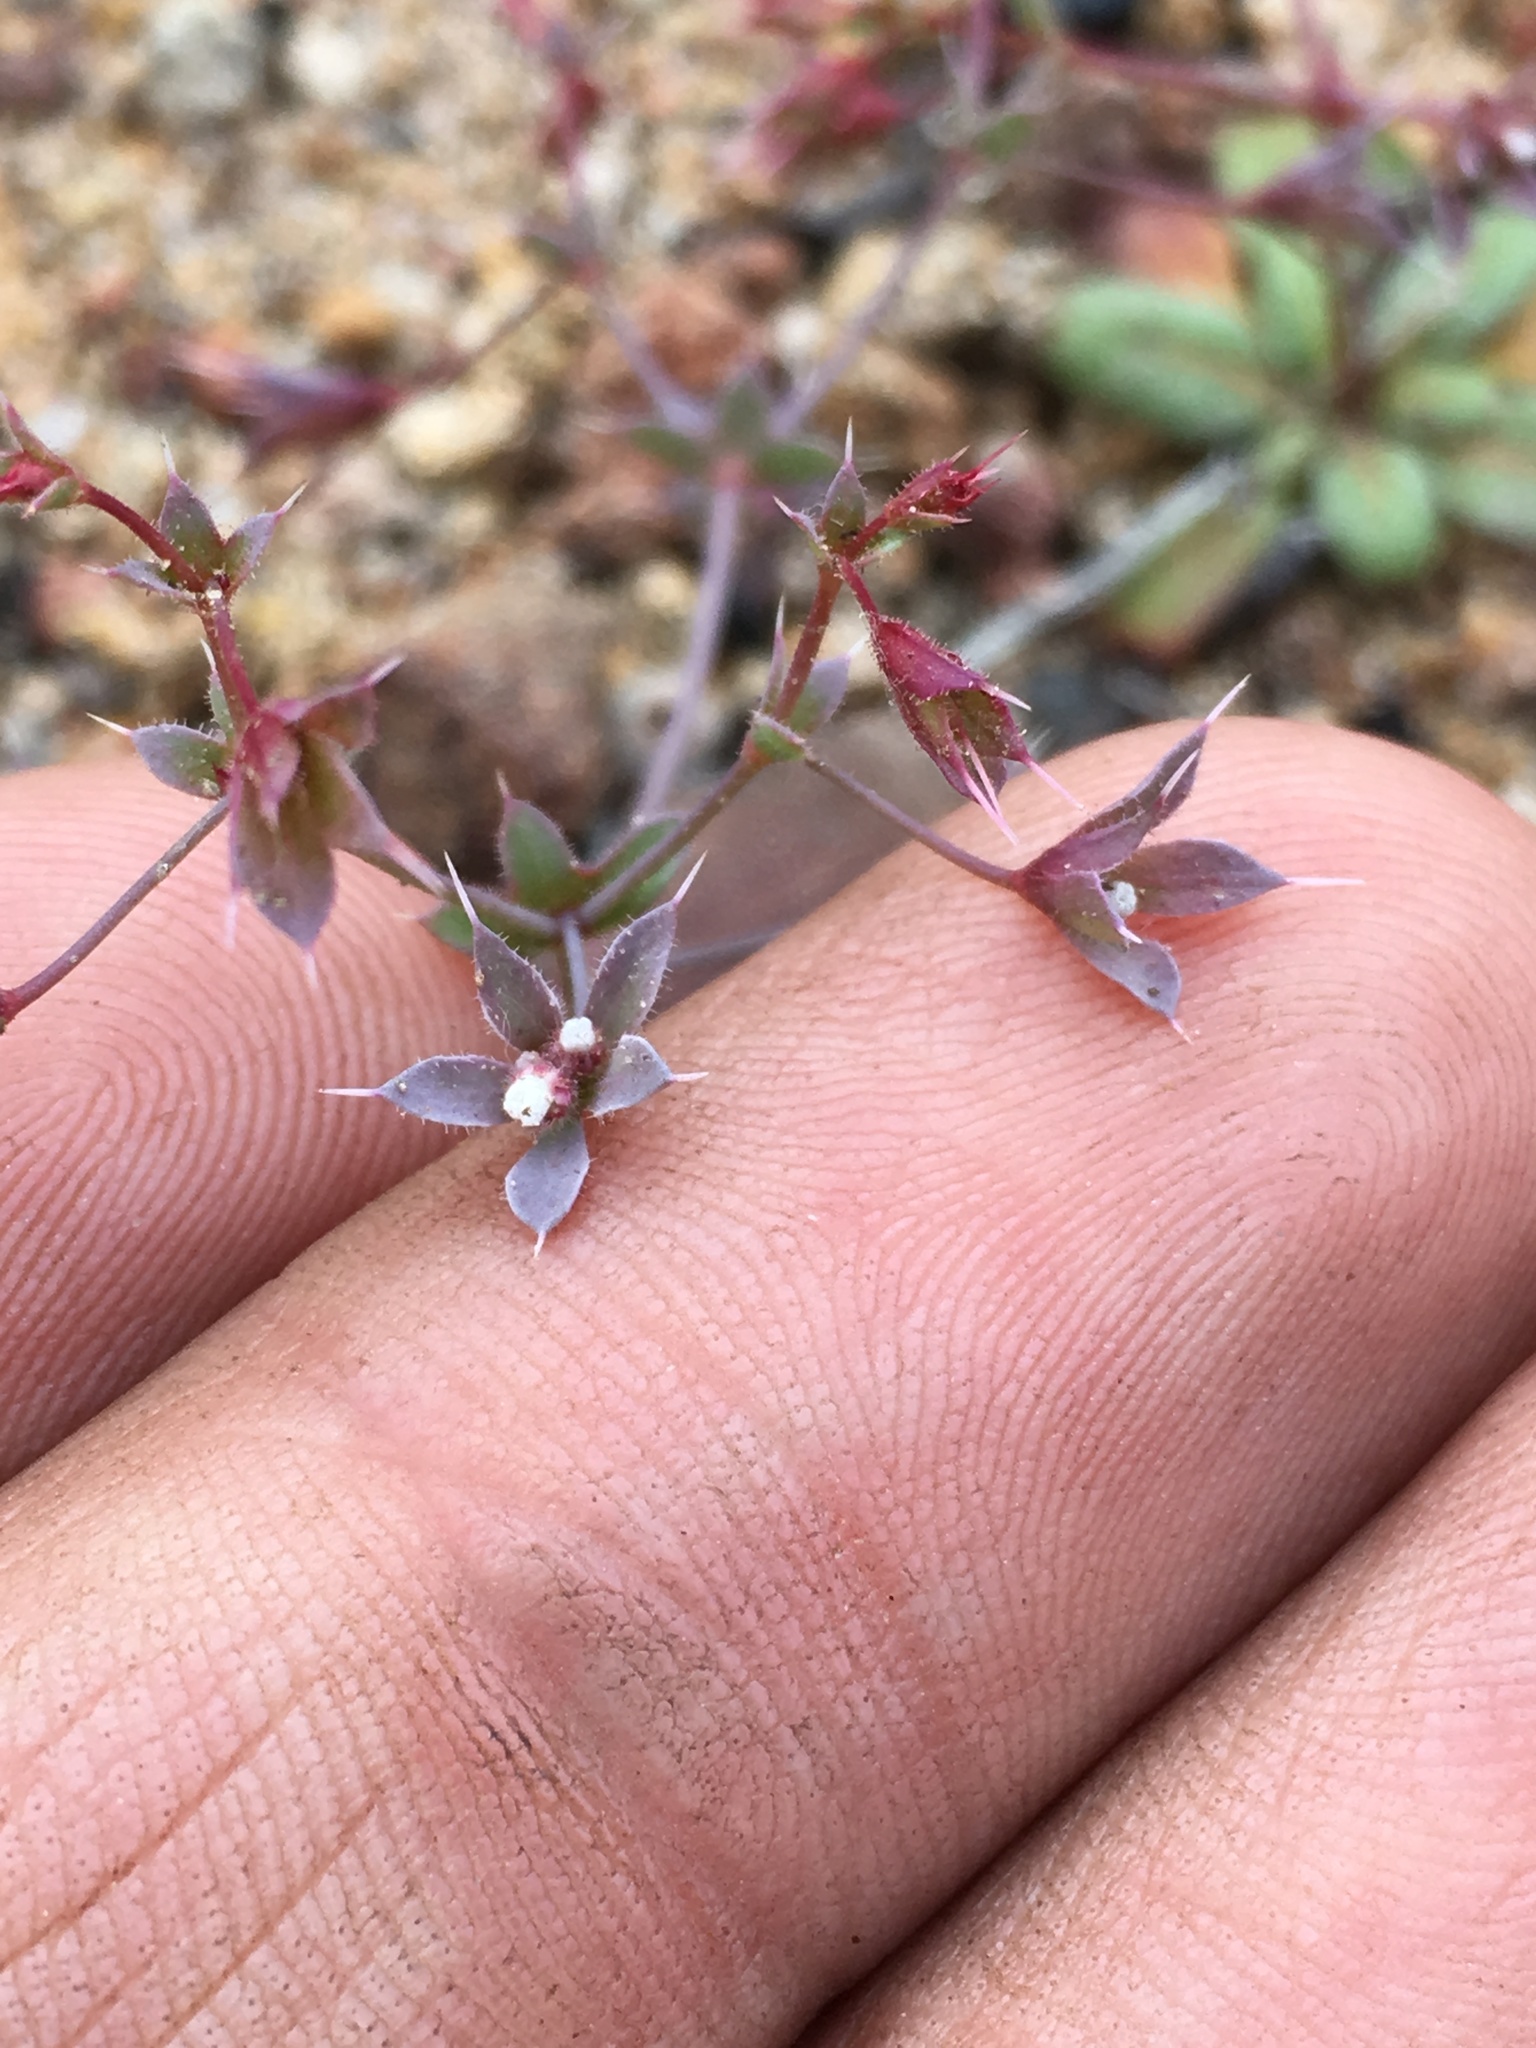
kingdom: Plantae
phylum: Tracheophyta
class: Magnoliopsida
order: Caryophyllales
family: Polygonaceae
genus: Sidotheca
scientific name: Sidotheca trilobata
